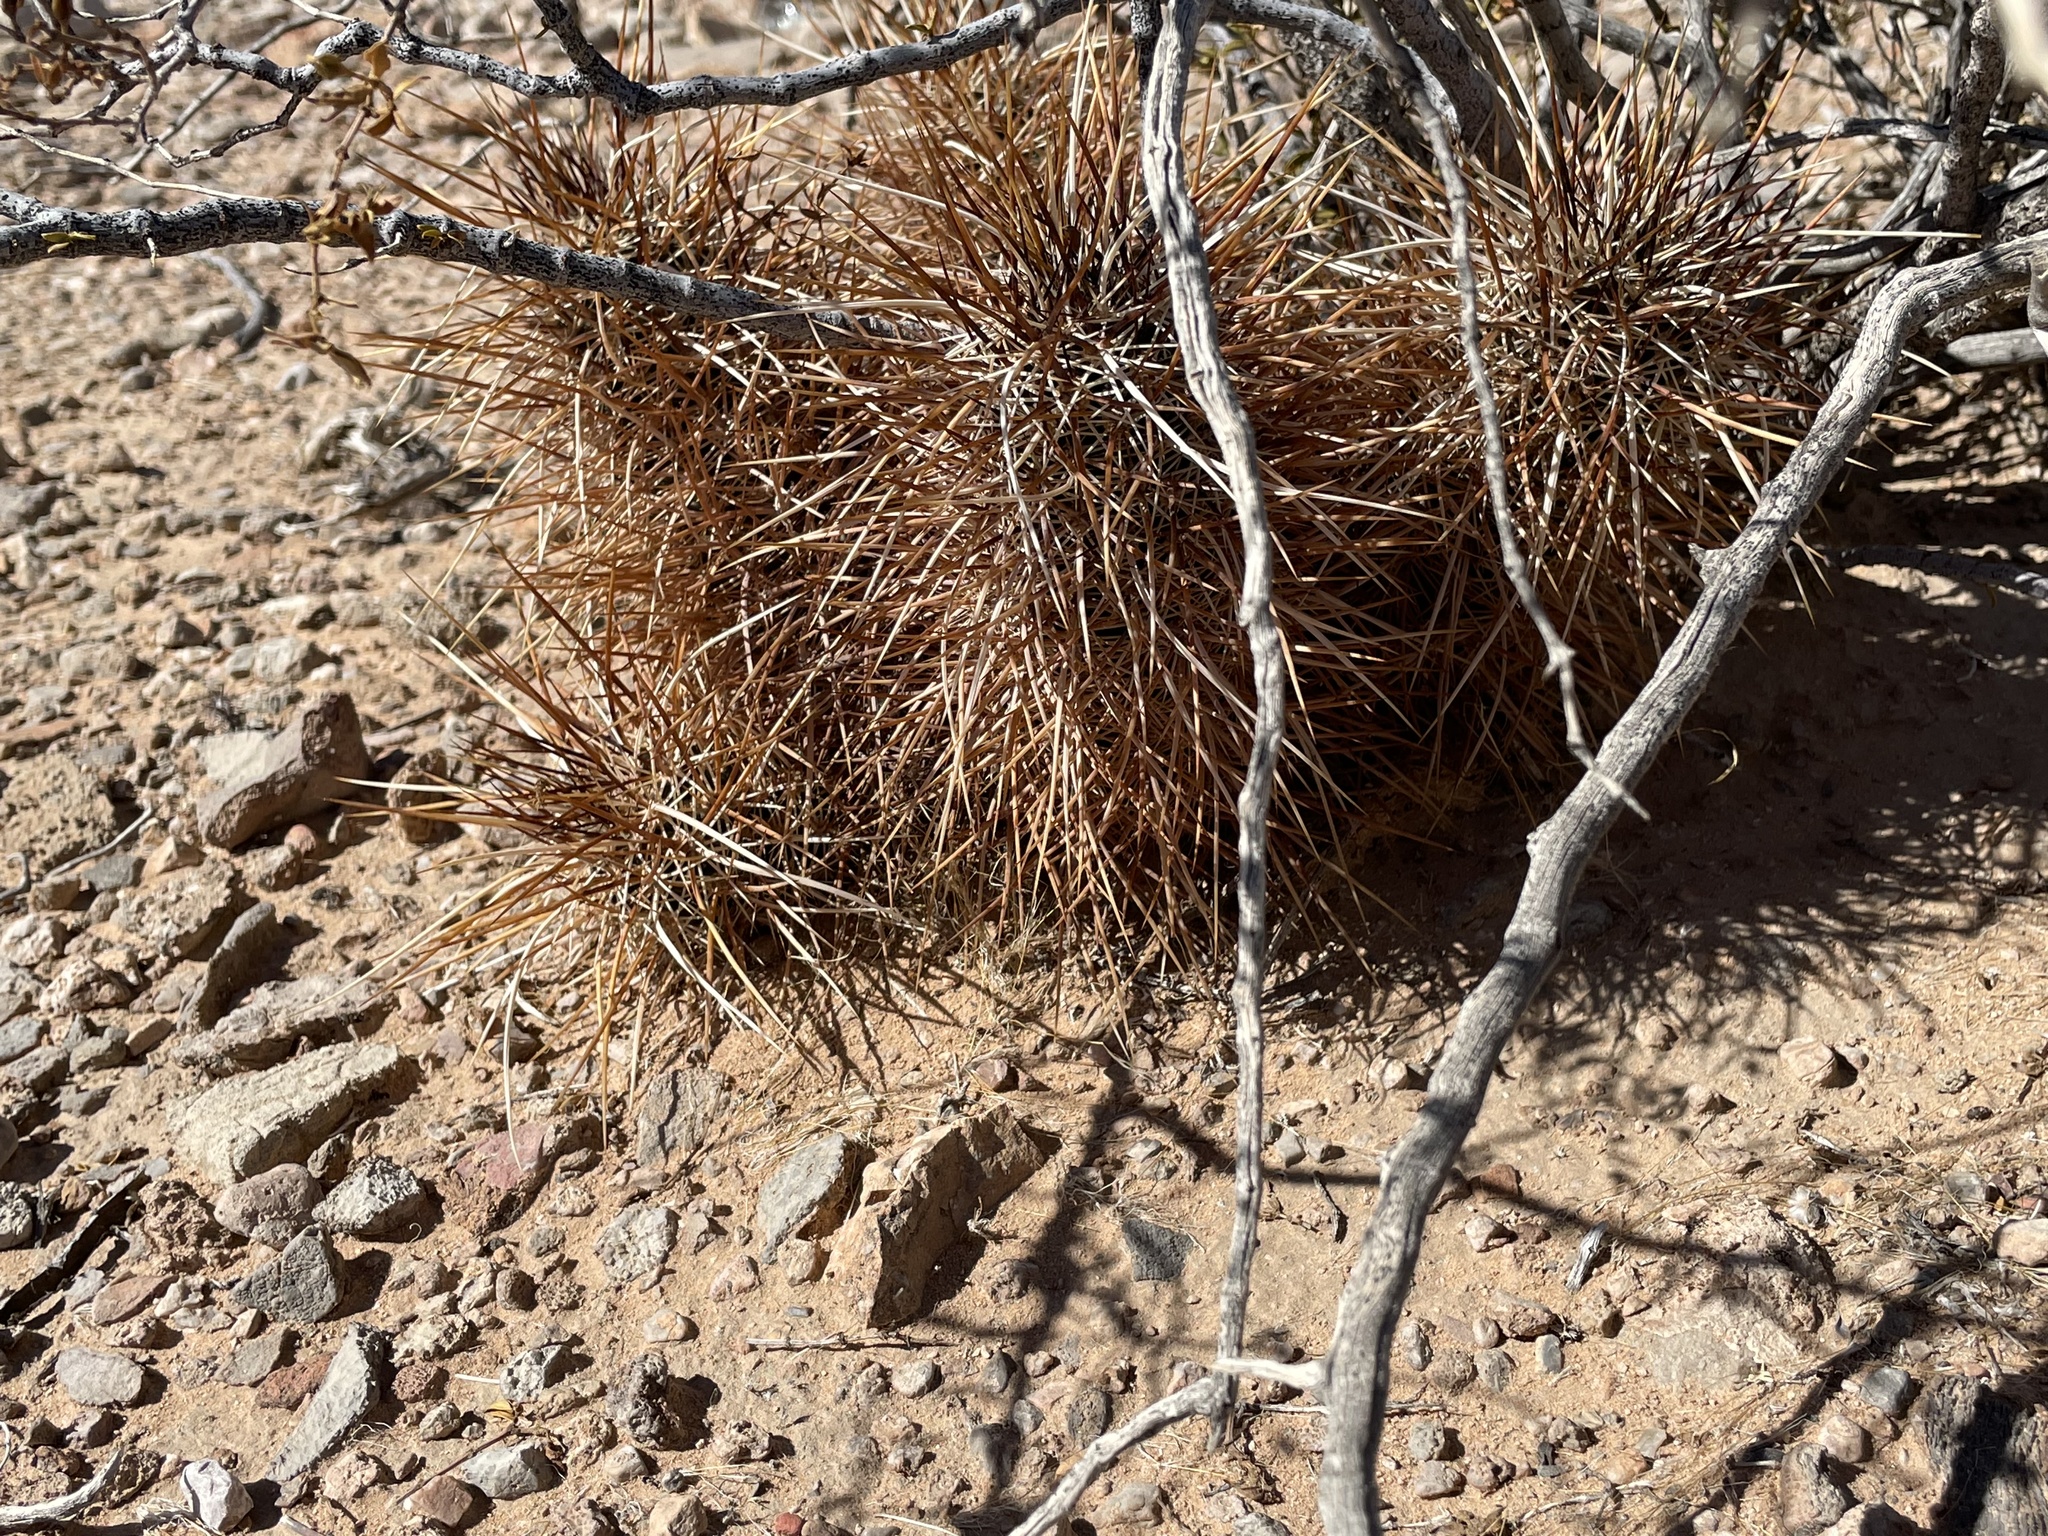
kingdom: Plantae
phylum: Tracheophyta
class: Magnoliopsida
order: Caryophyllales
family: Cactaceae
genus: Echinocereus
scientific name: Echinocereus engelmannii
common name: Engelmann's hedgehog cactus
